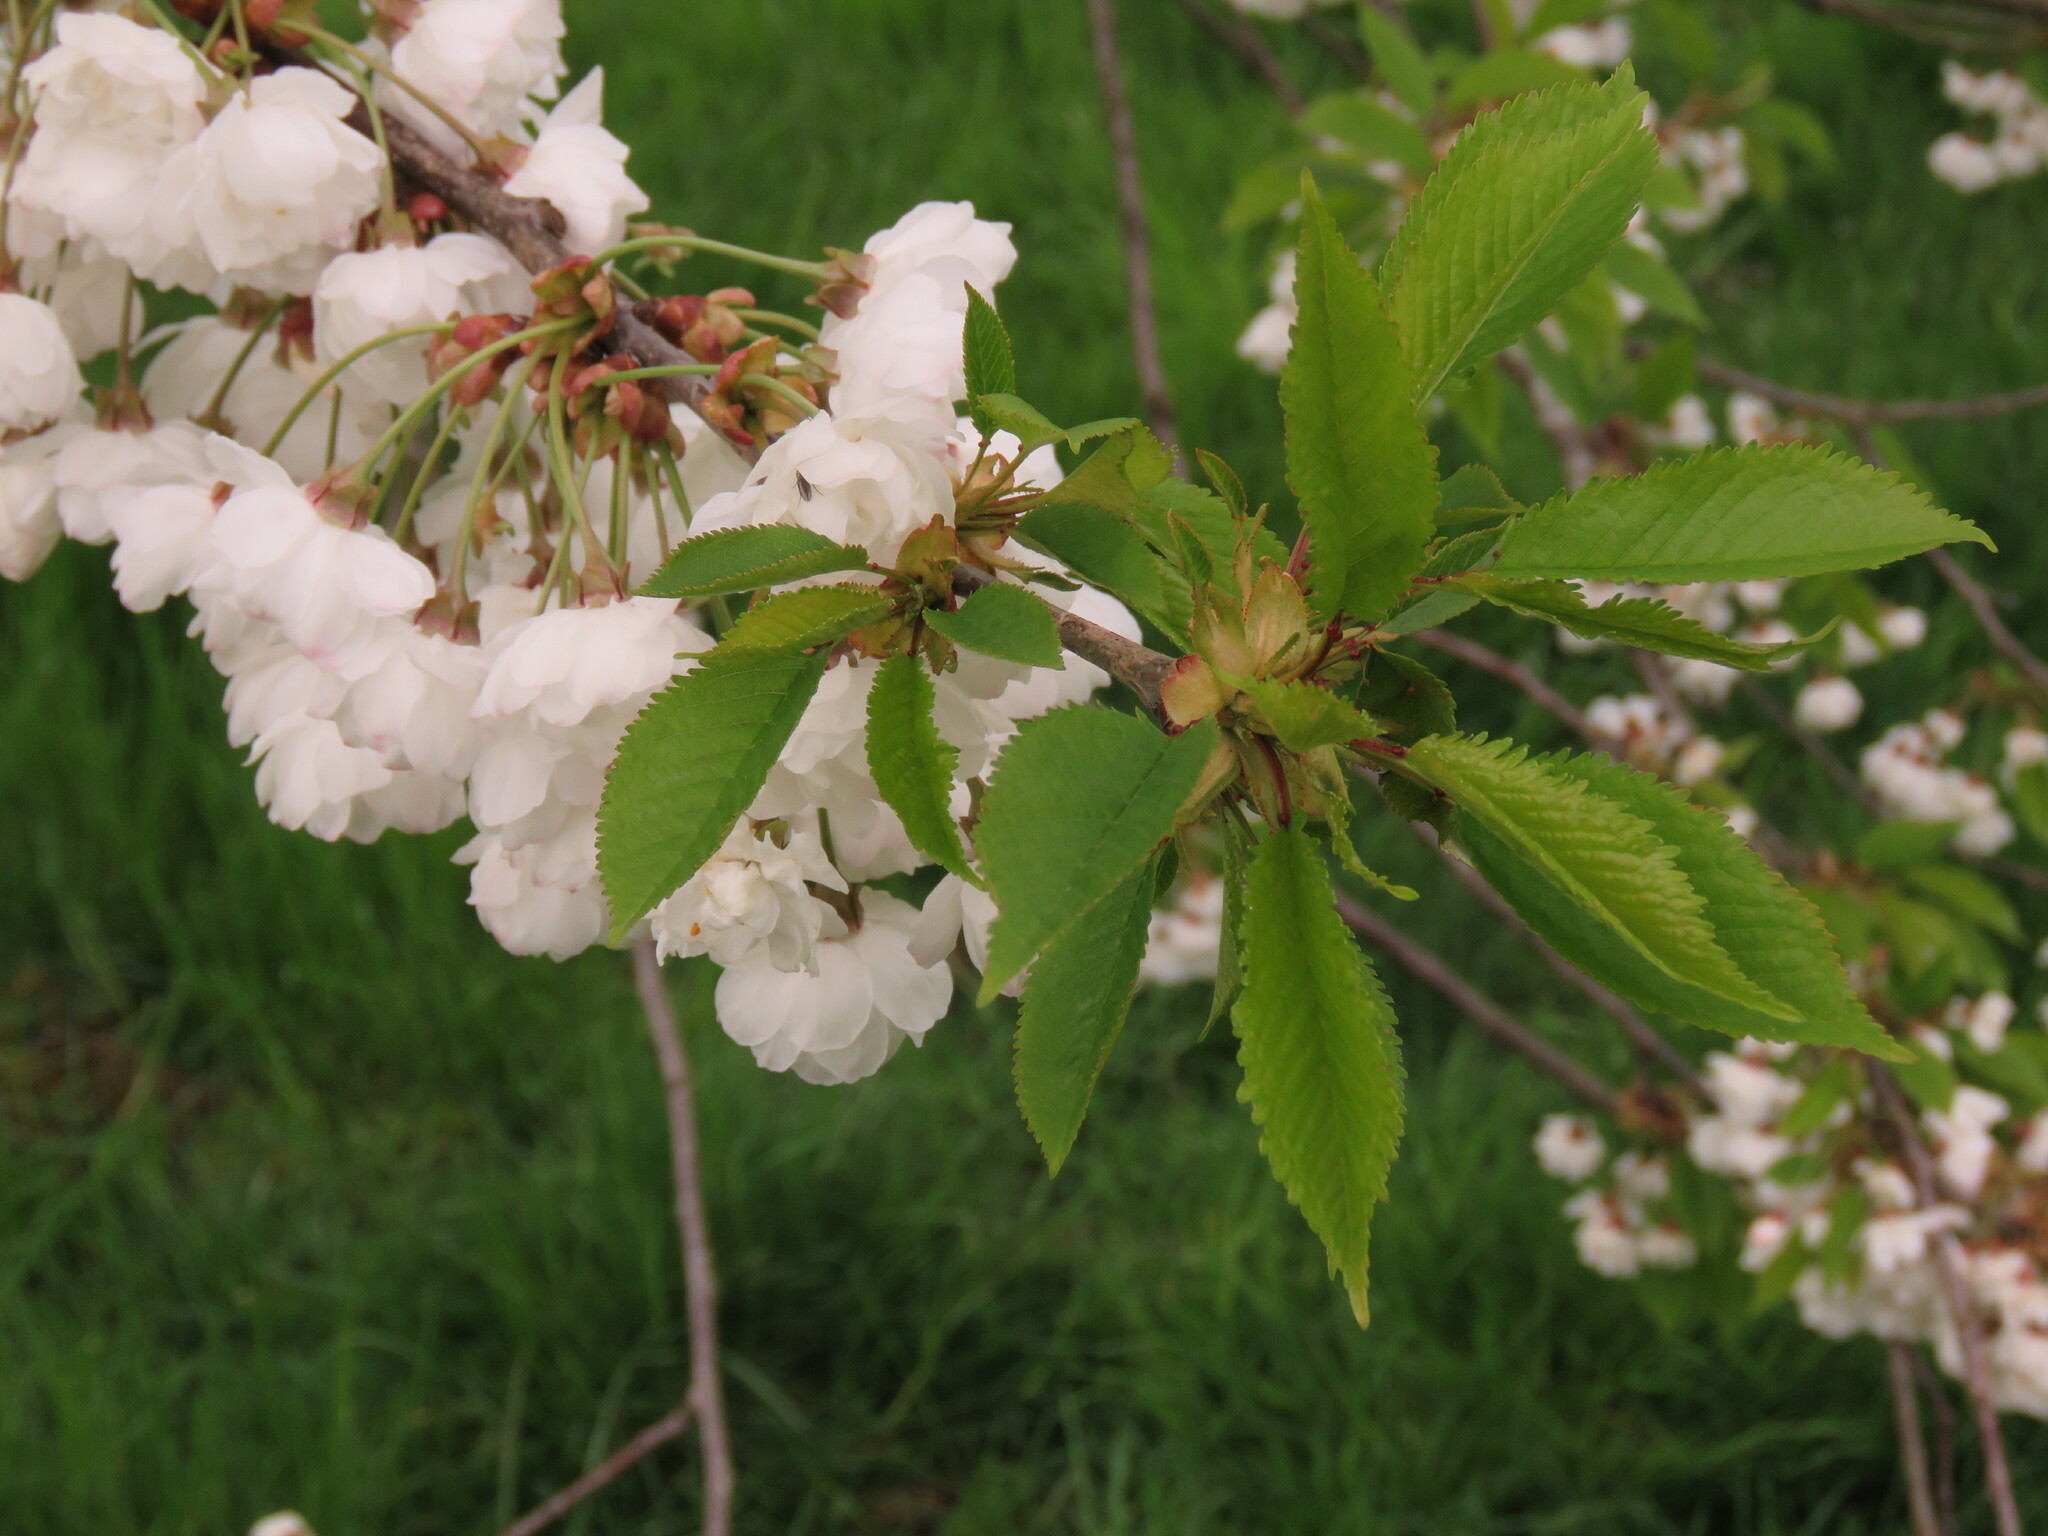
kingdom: Plantae
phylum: Tracheophyta
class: Magnoliopsida
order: Rosales
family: Rosaceae
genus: Prunus
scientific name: Prunus avium
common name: Sweet cherry
